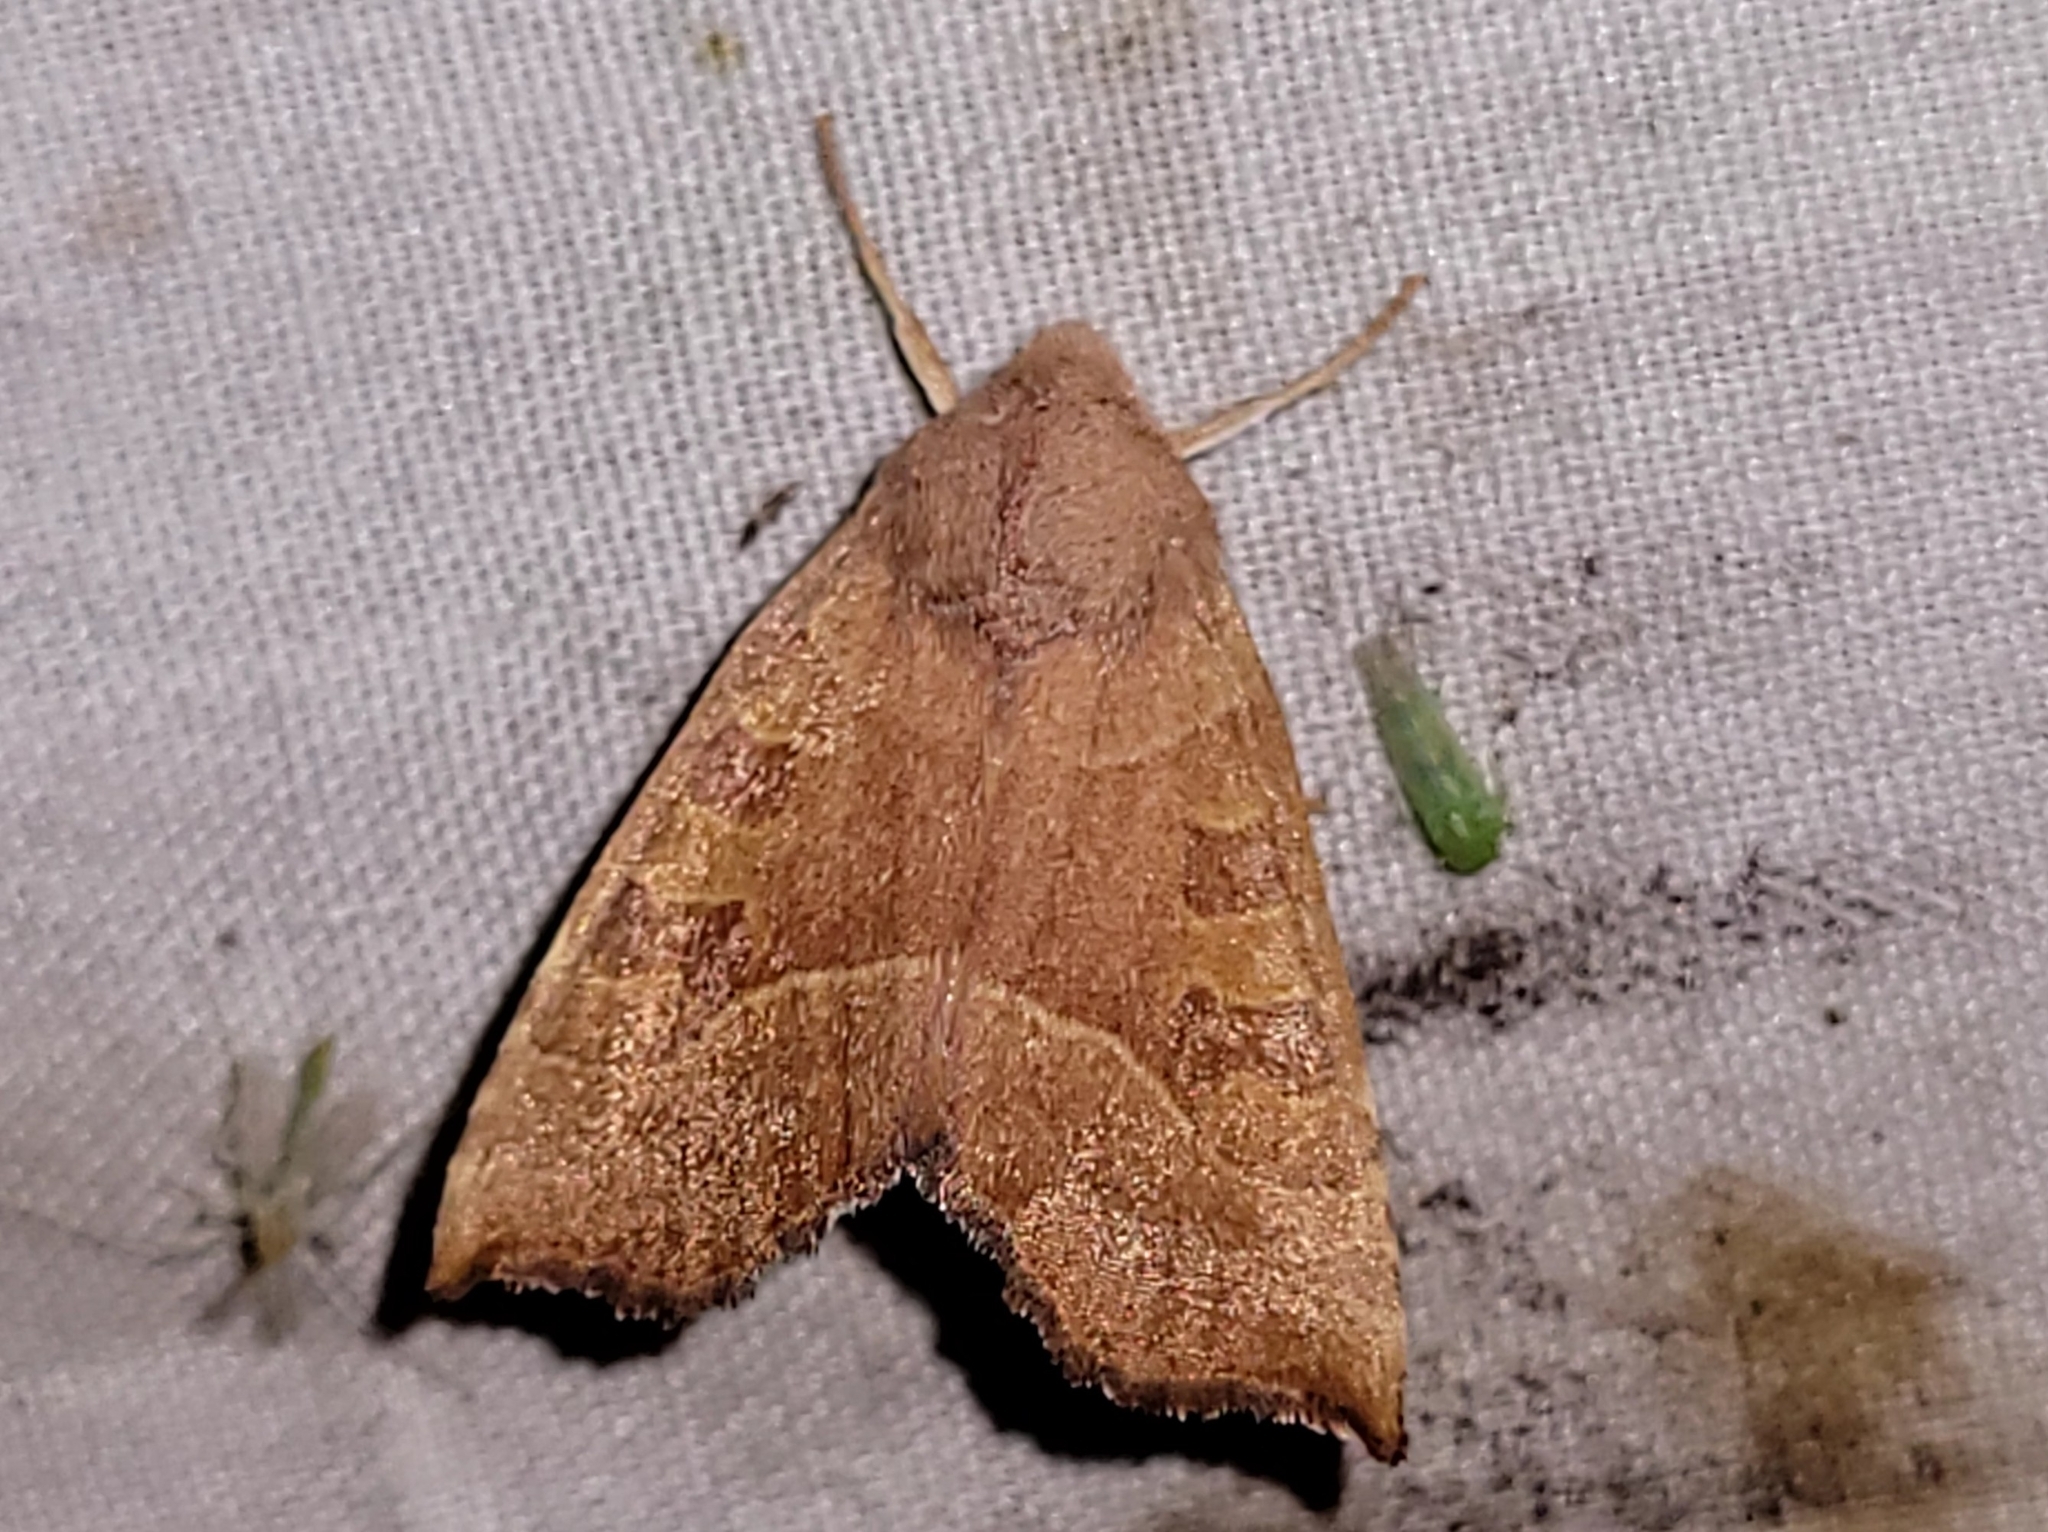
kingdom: Animalia
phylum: Arthropoda
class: Insecta
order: Lepidoptera
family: Noctuidae
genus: Eucirroedia
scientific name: Eucirroedia pampina
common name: Scalloped sallow
